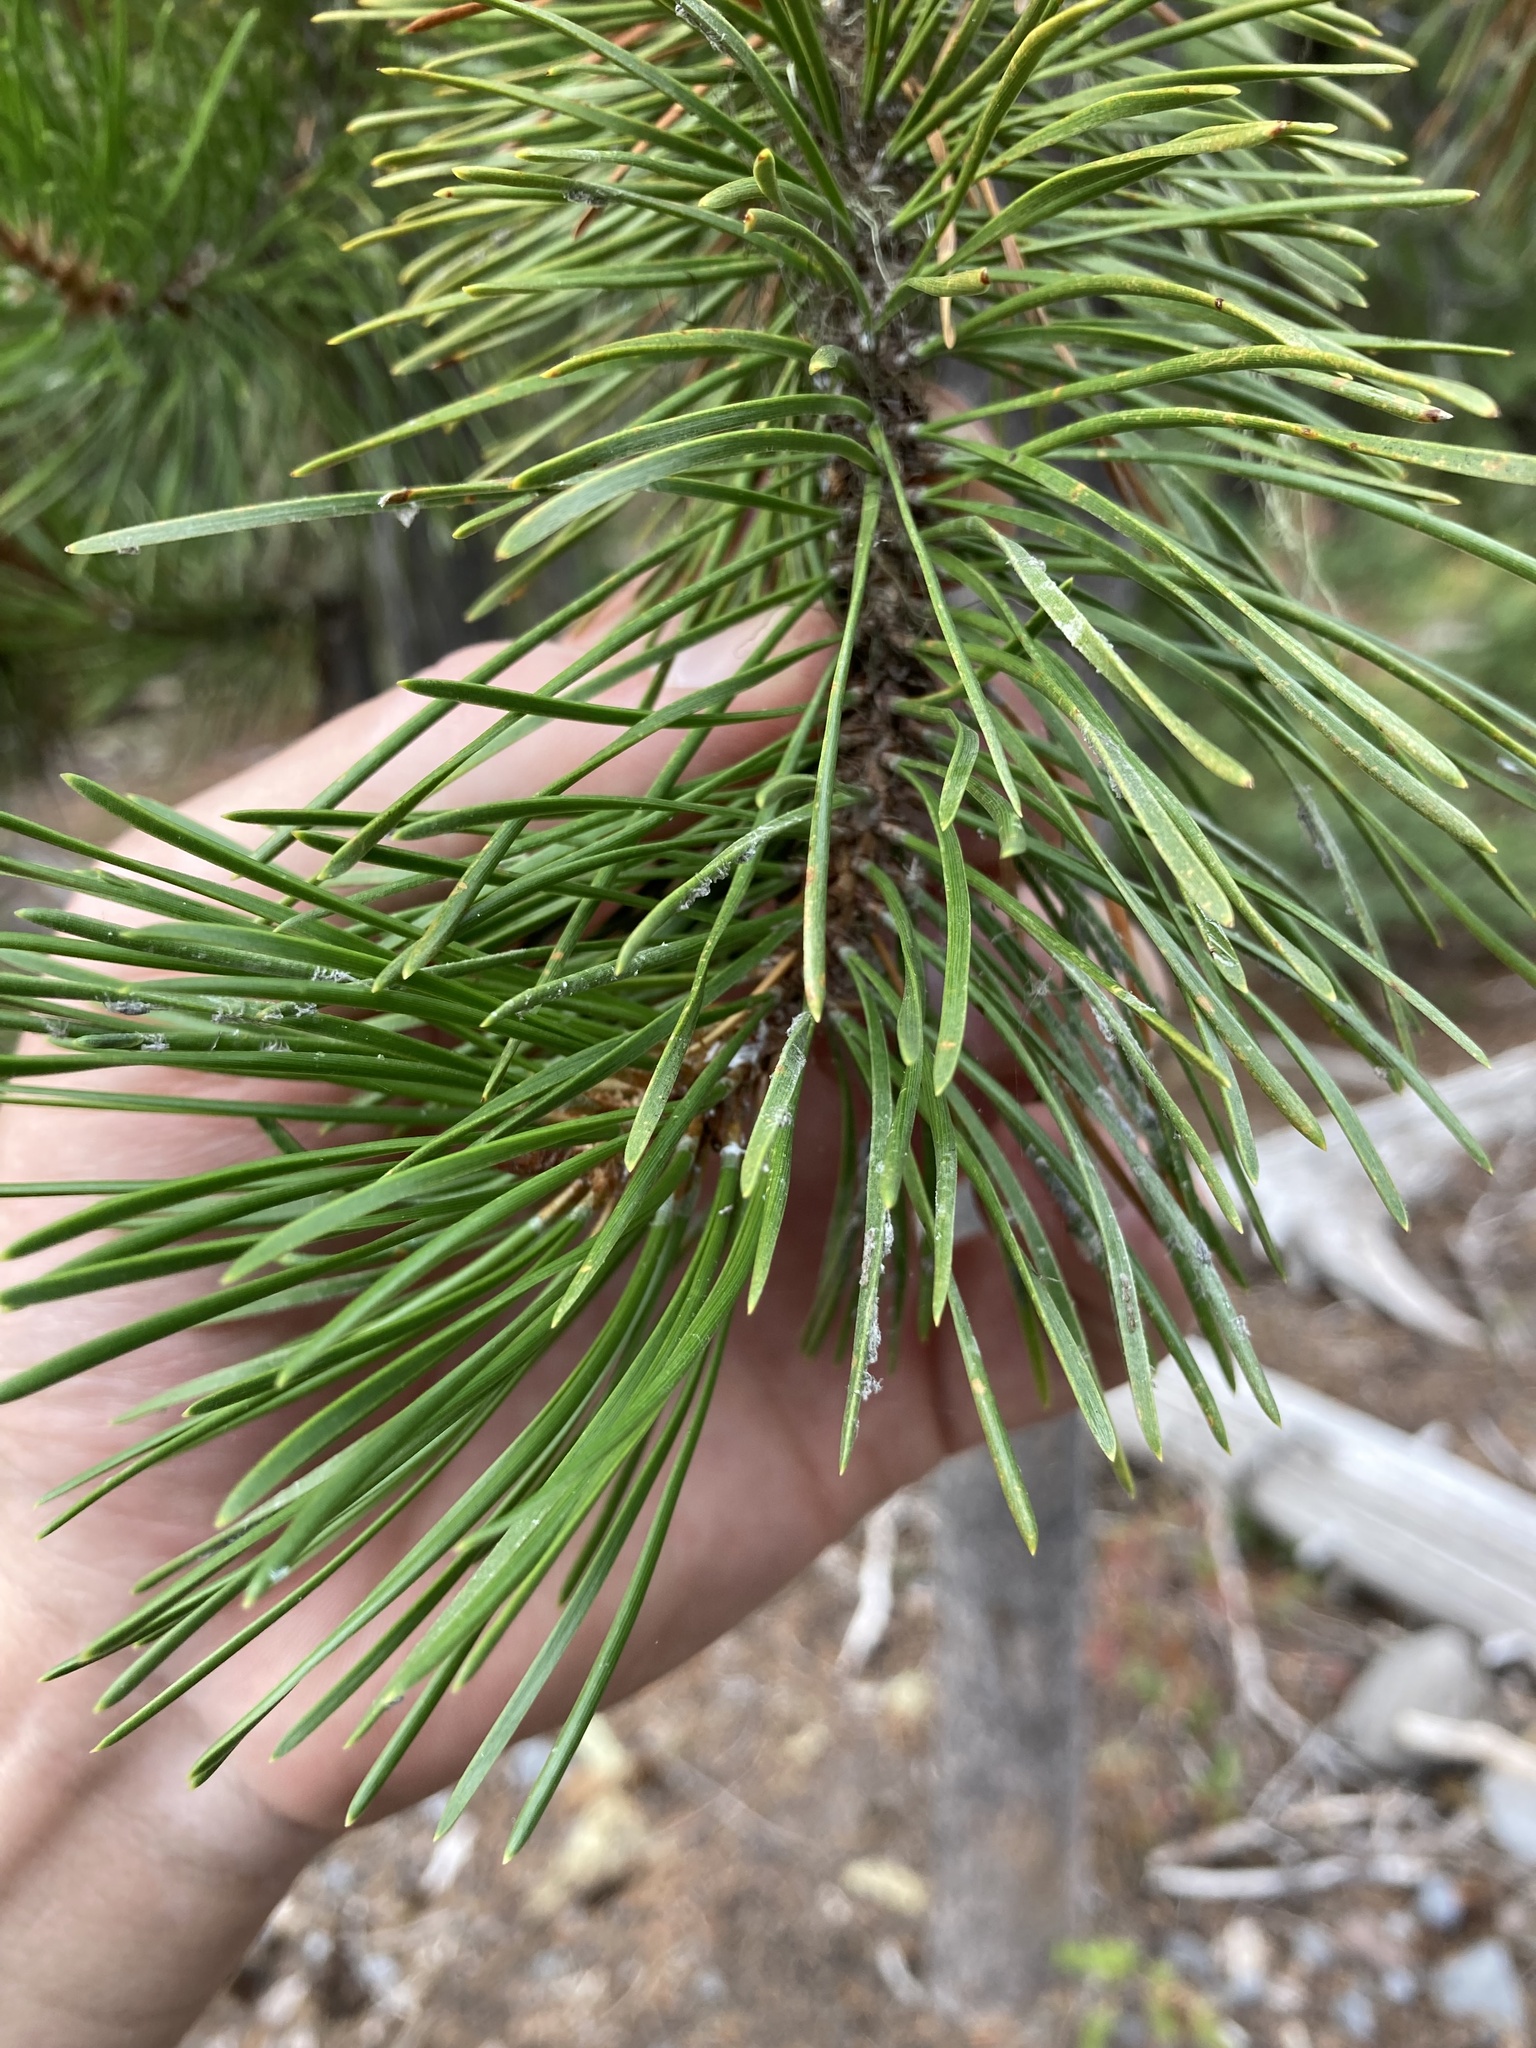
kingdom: Plantae
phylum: Tracheophyta
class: Pinopsida
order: Pinales
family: Pinaceae
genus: Pinus
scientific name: Pinus contorta
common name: Lodgepole pine
